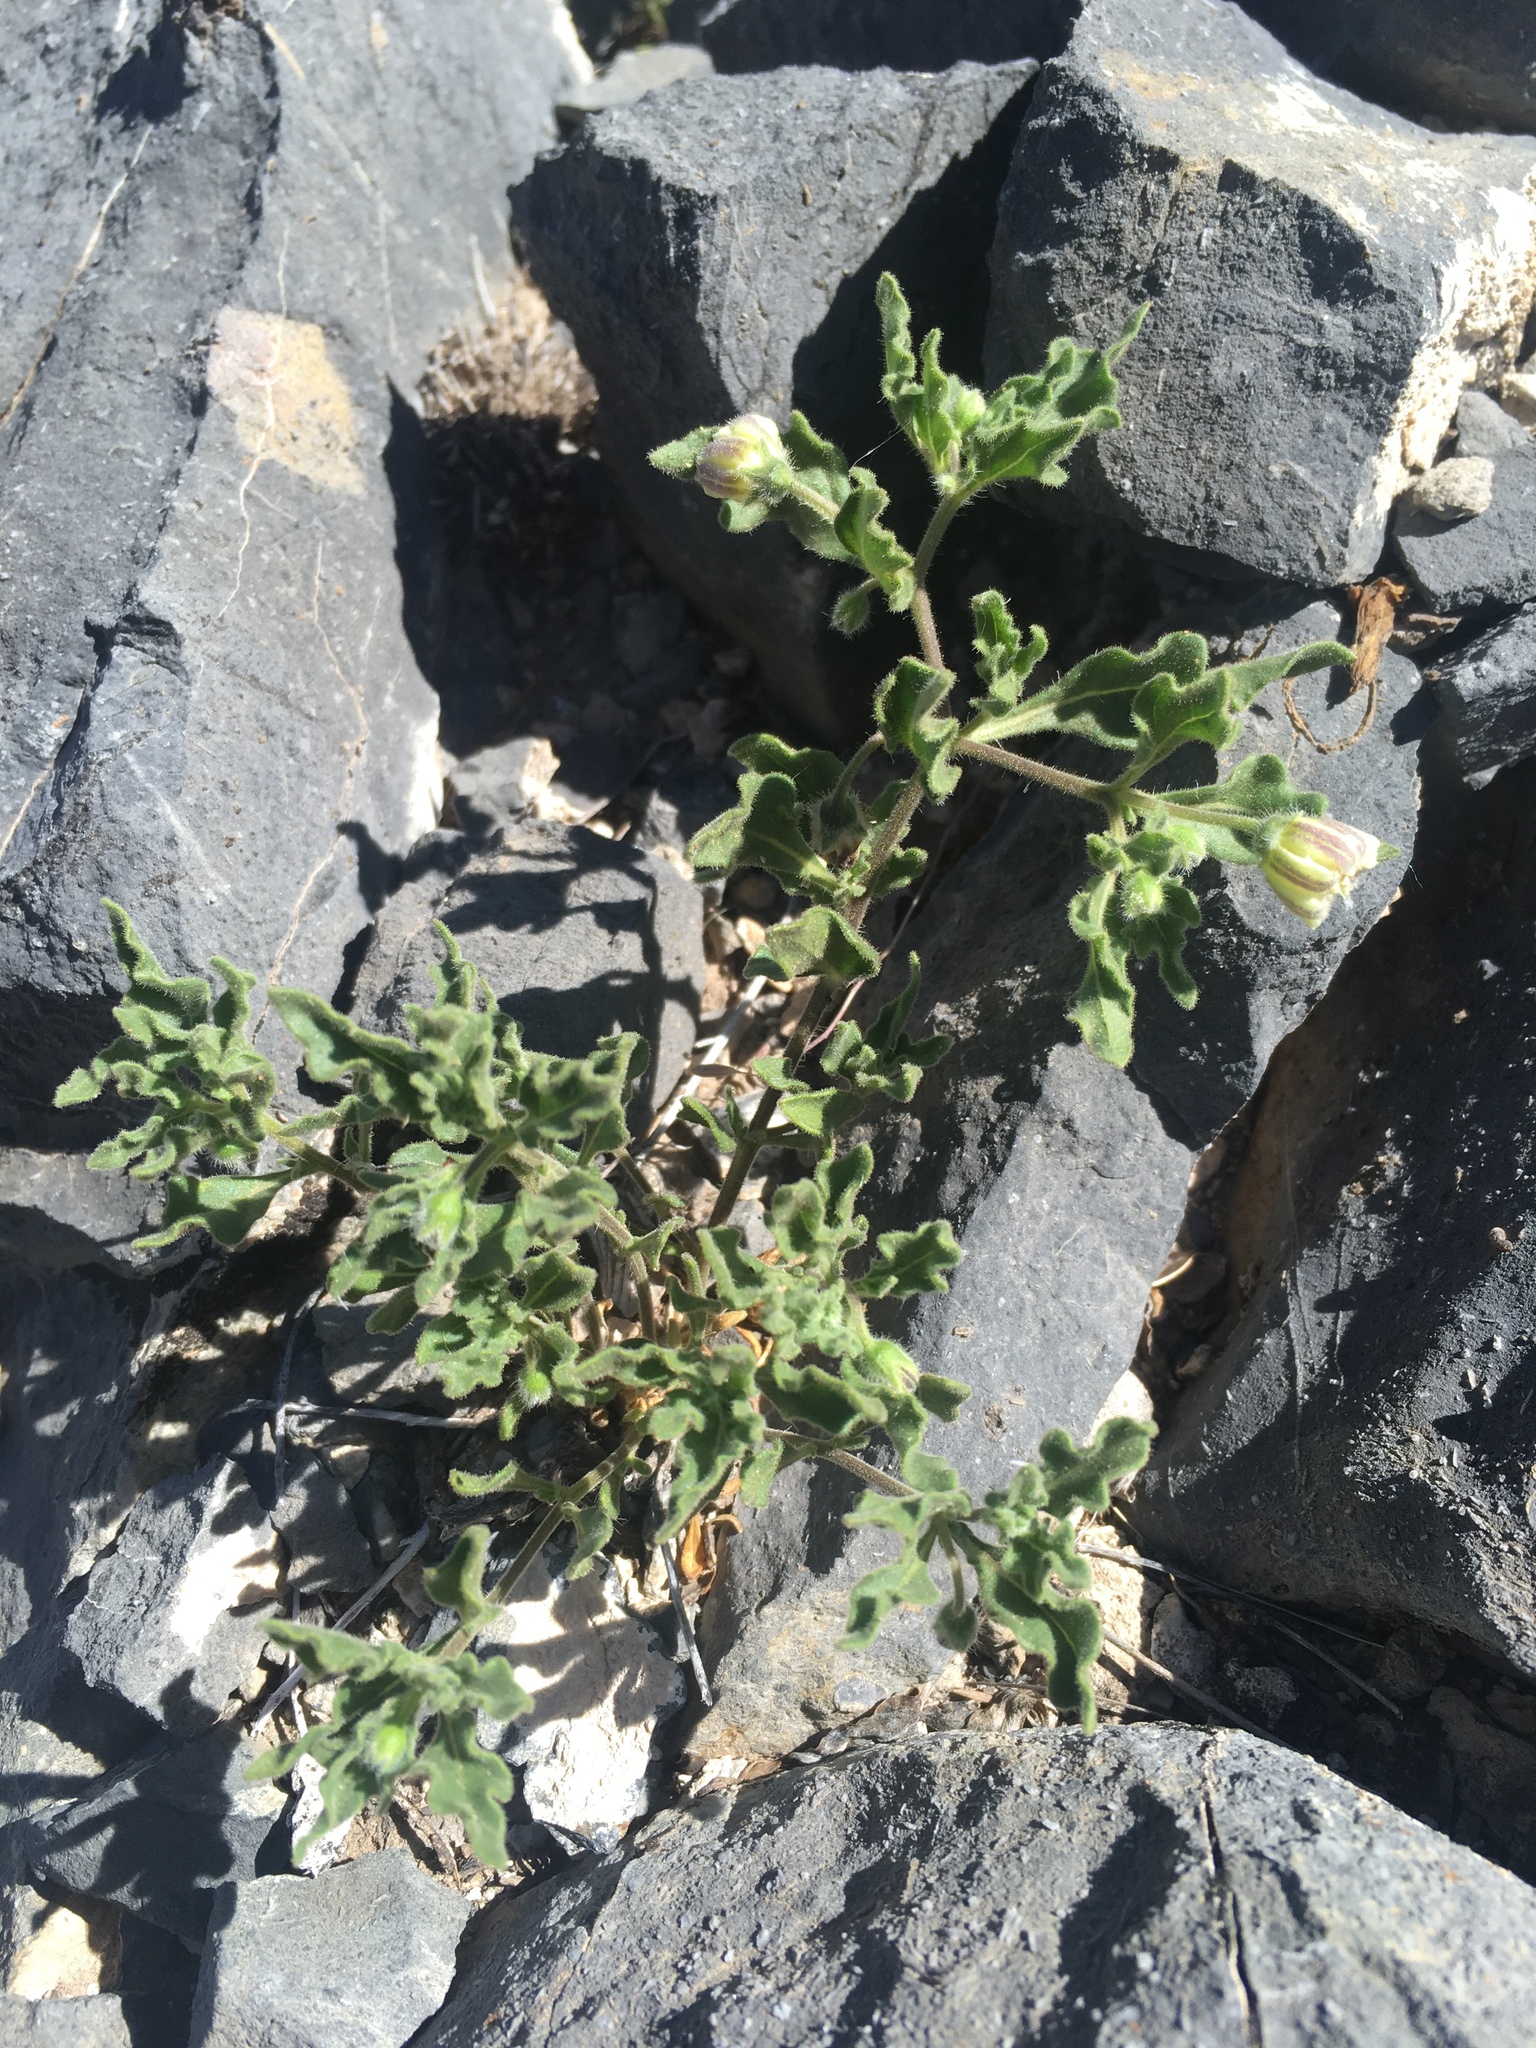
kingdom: Plantae
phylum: Tracheophyta
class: Magnoliopsida
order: Solanales
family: Solanaceae
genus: Chamaesaracha
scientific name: Chamaesaracha sordida
